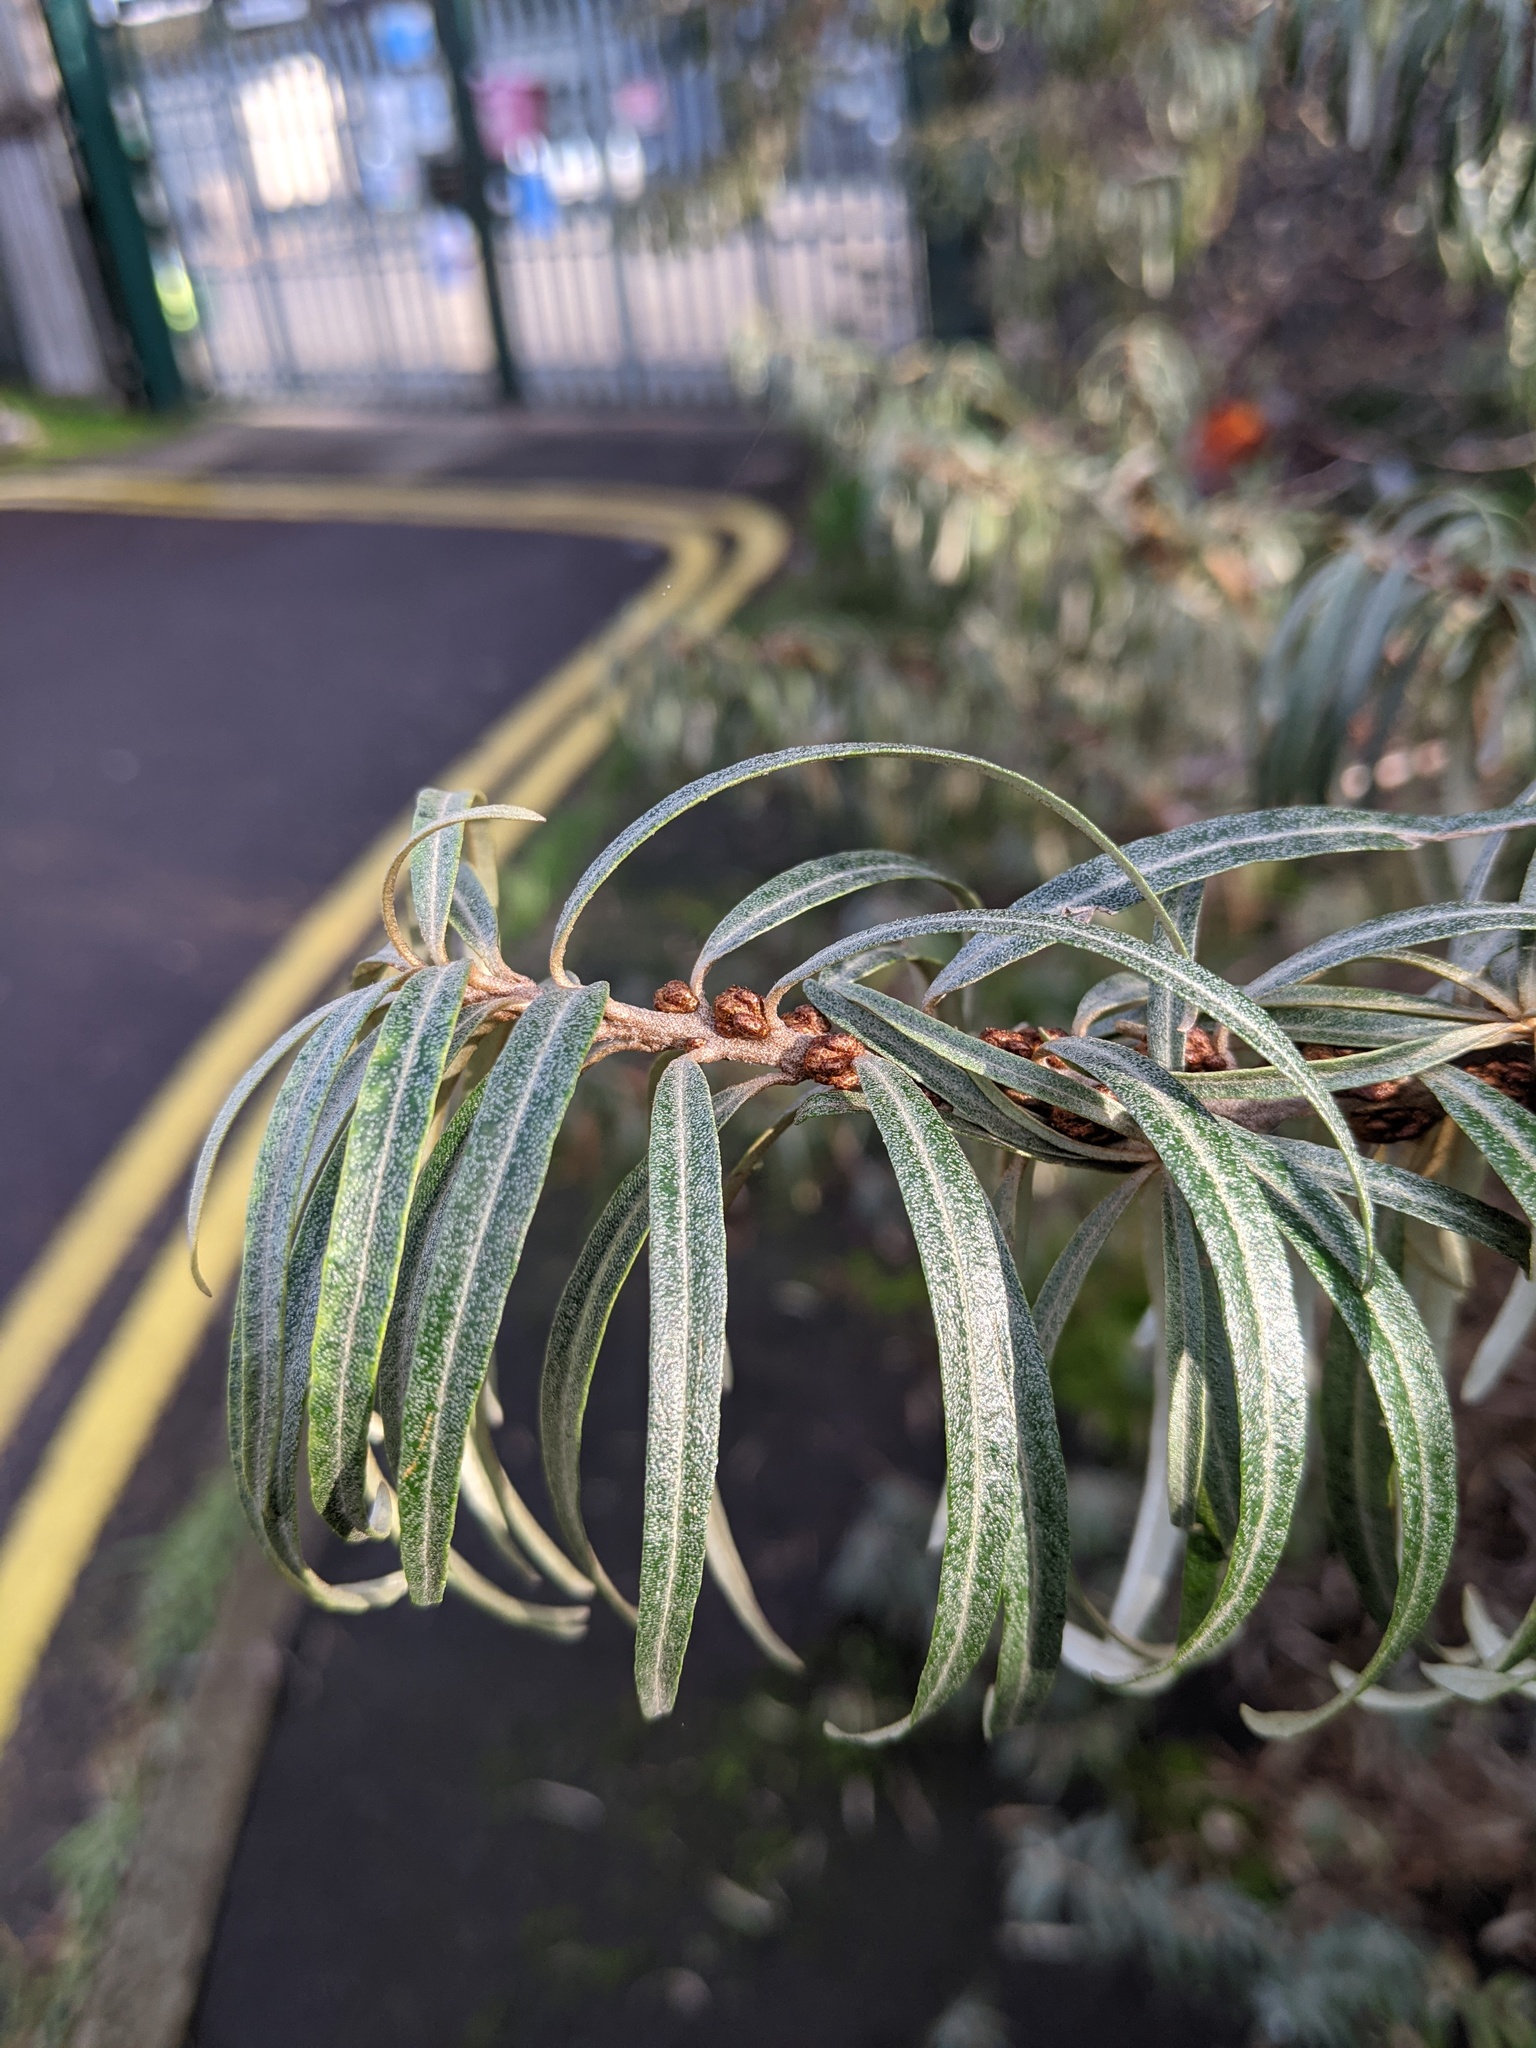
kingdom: Plantae
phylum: Tracheophyta
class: Magnoliopsida
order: Rosales
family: Elaeagnaceae
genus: Hippophae
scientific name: Hippophae rhamnoides
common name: Sea-buckthorn
